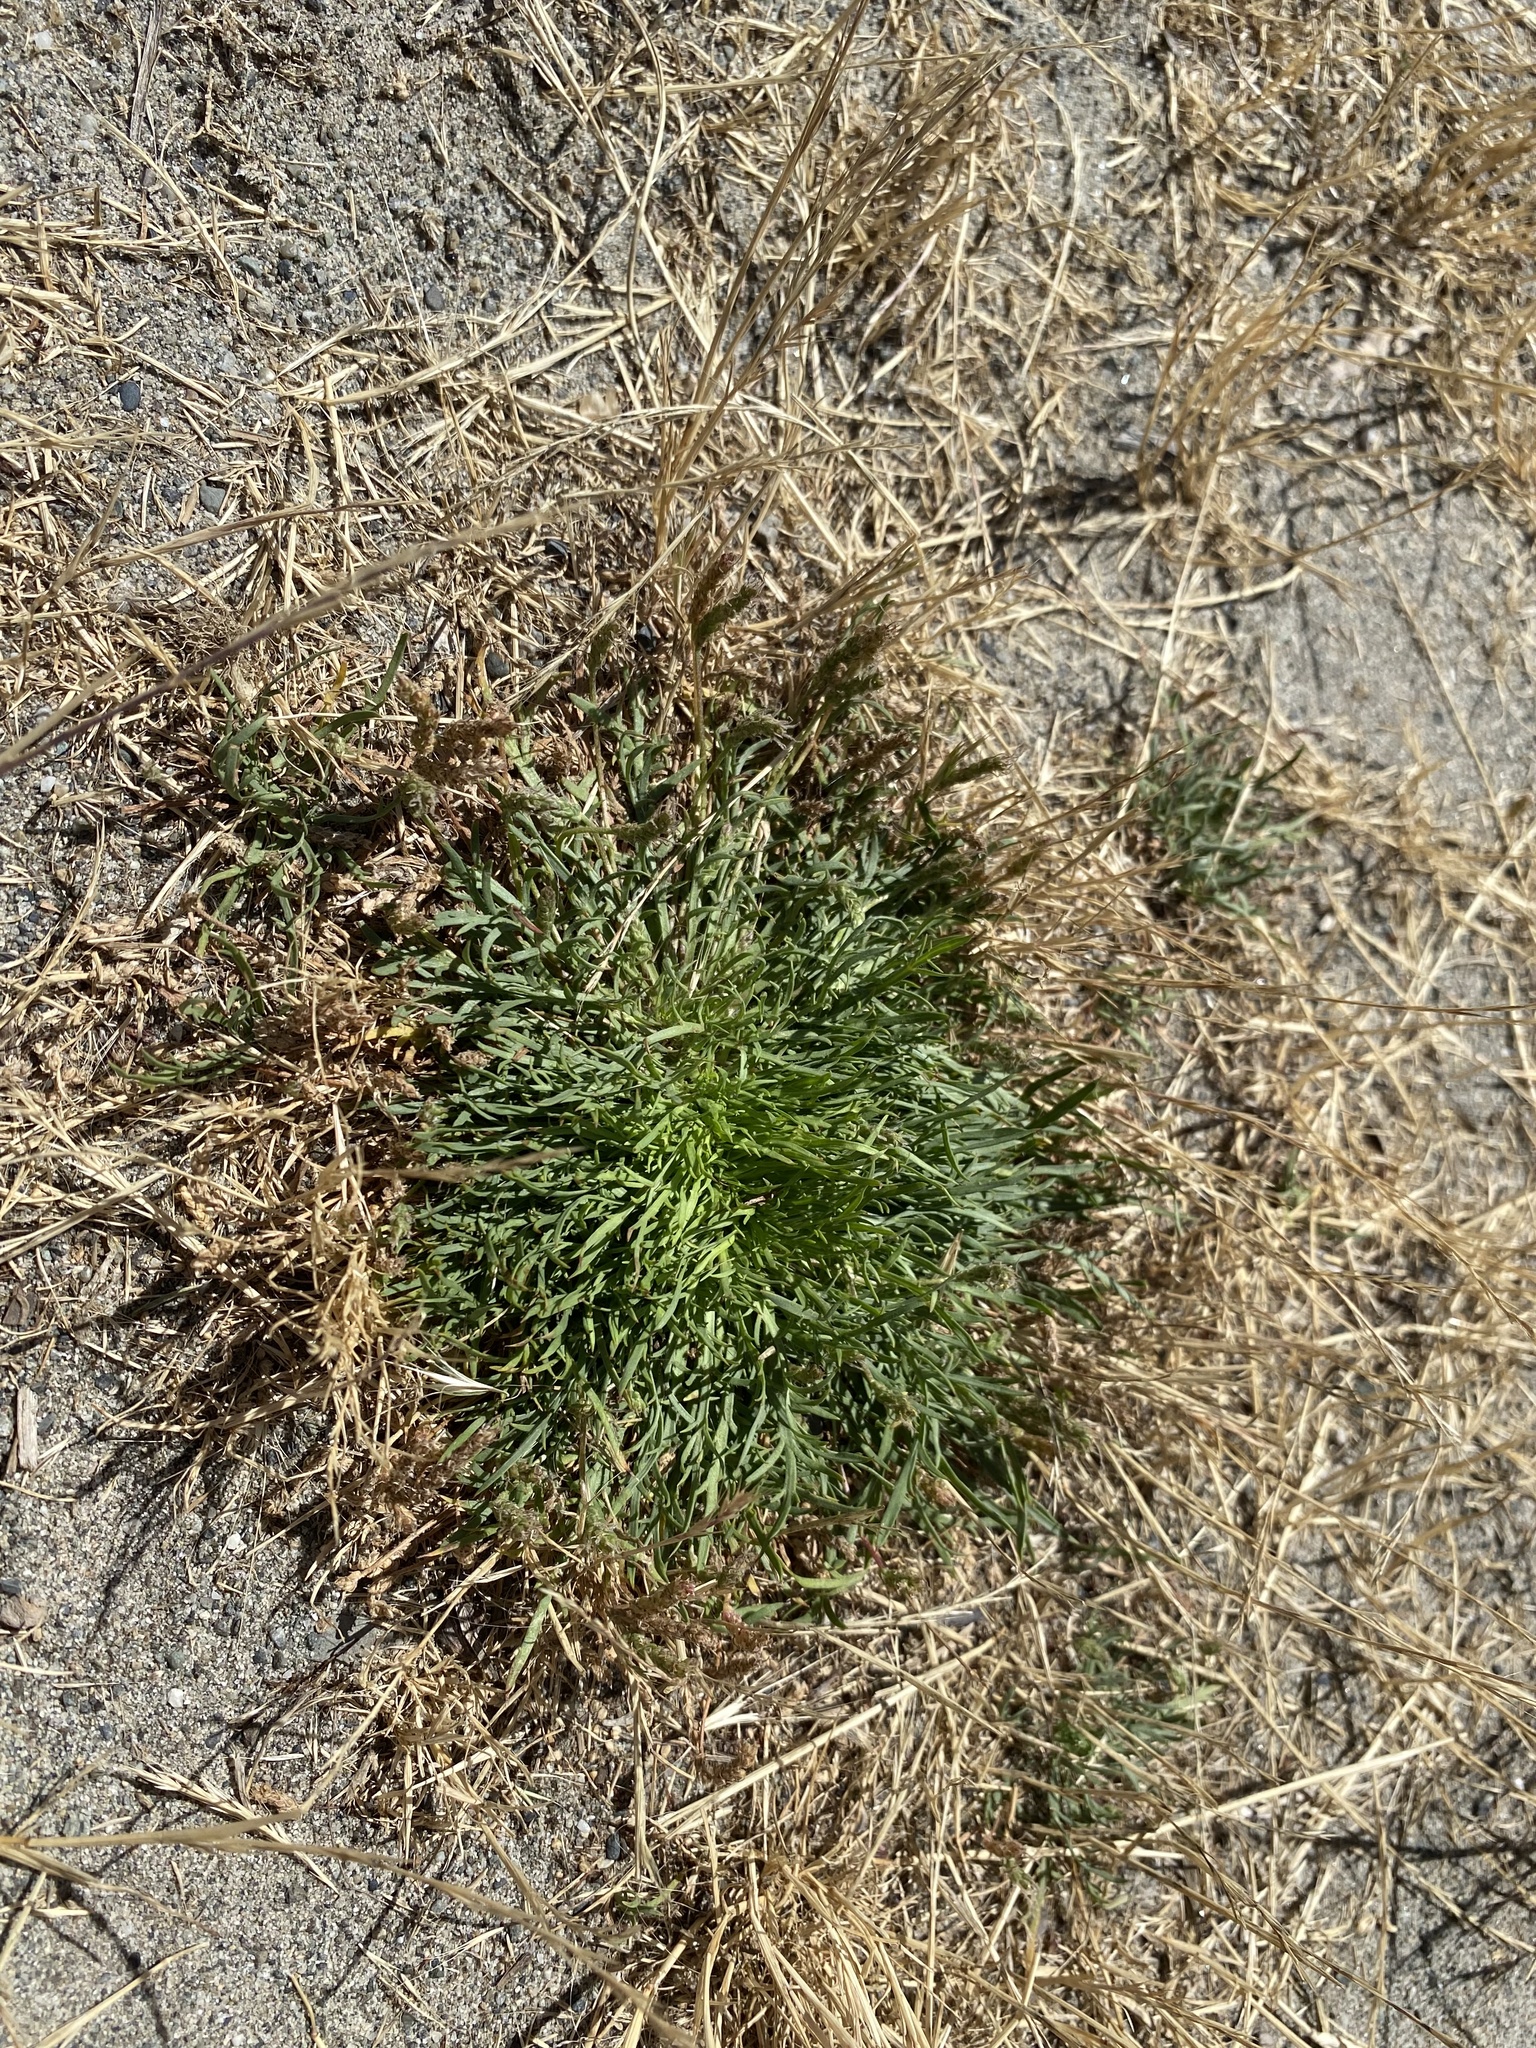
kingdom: Plantae
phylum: Tracheophyta
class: Magnoliopsida
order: Lamiales
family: Plantaginaceae
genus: Plantago
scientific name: Plantago coronopus
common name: Buck's-horn plantain
